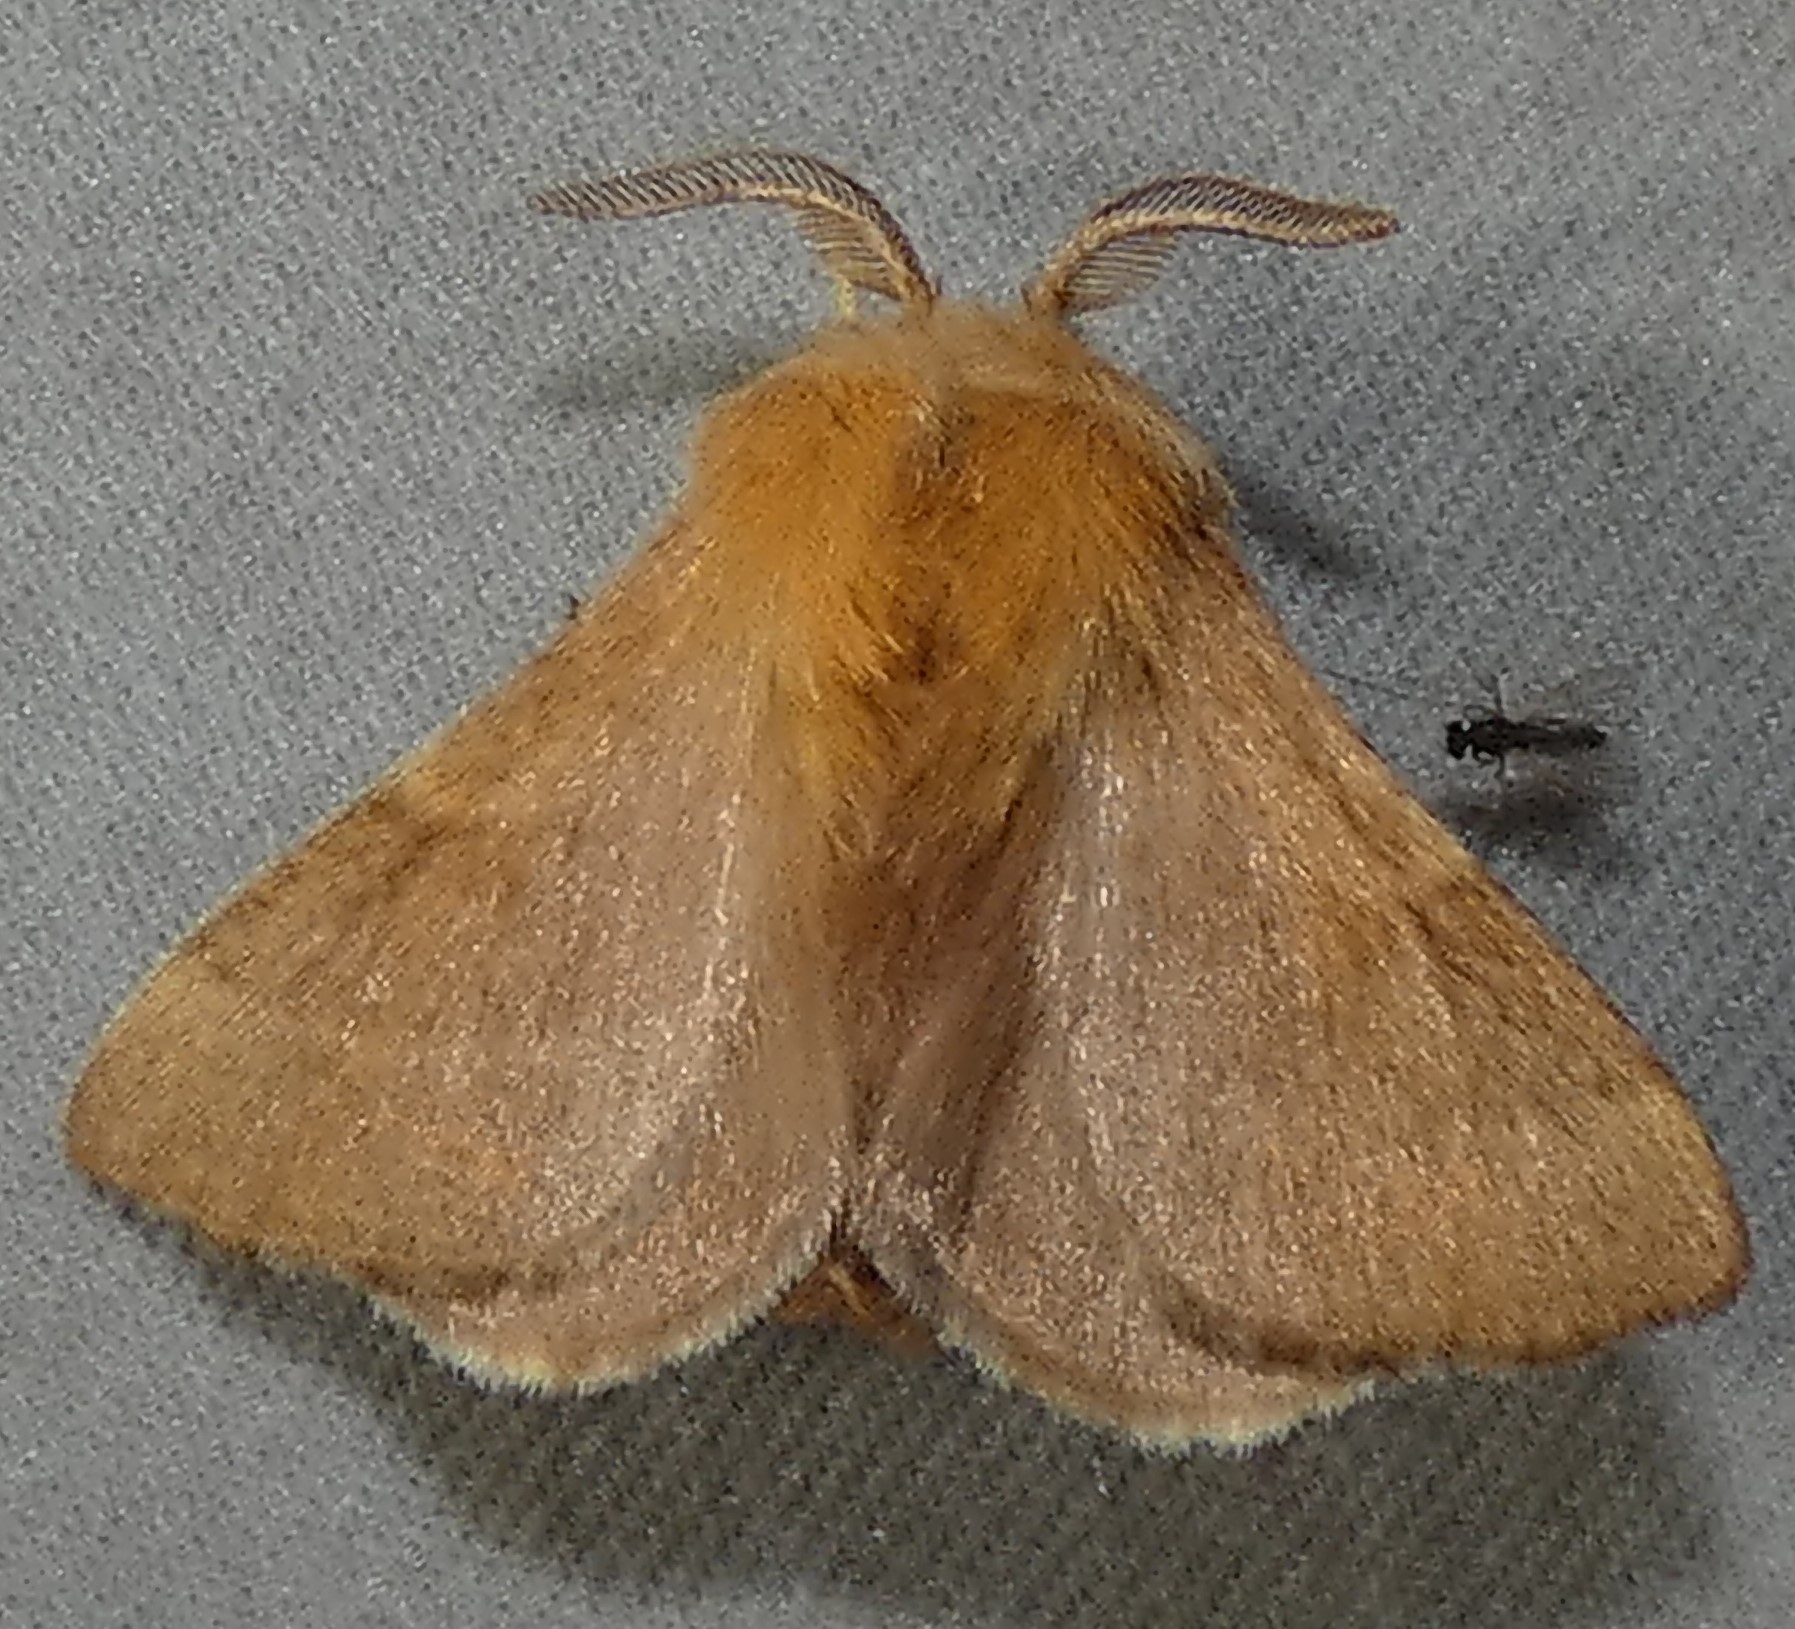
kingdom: Animalia
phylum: Arthropoda
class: Insecta
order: Lepidoptera
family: Lasiocampidae
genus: Malacosoma
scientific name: Malacosoma disstria
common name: Forest tent caterpillar
